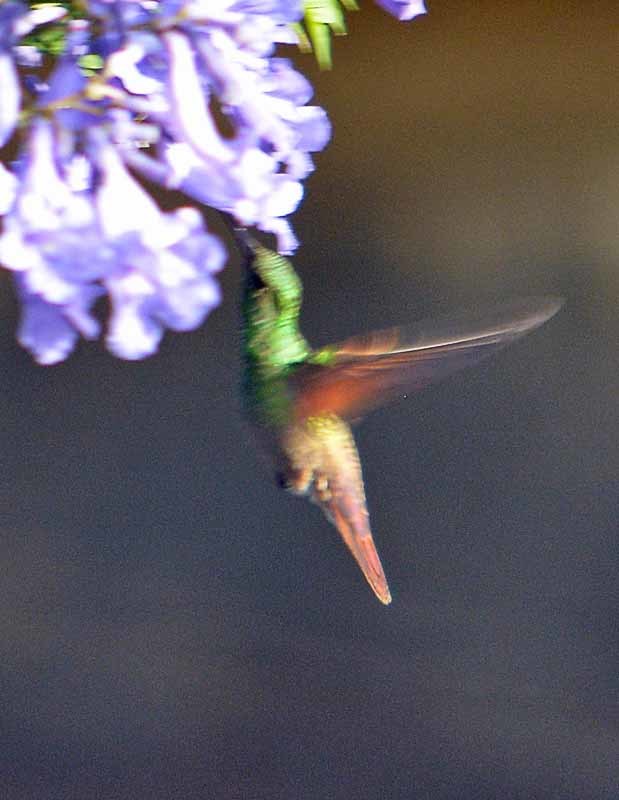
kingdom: Animalia
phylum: Chordata
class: Aves
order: Apodiformes
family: Trochilidae
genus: Saucerottia
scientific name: Saucerottia beryllina
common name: Berylline hummingbird
